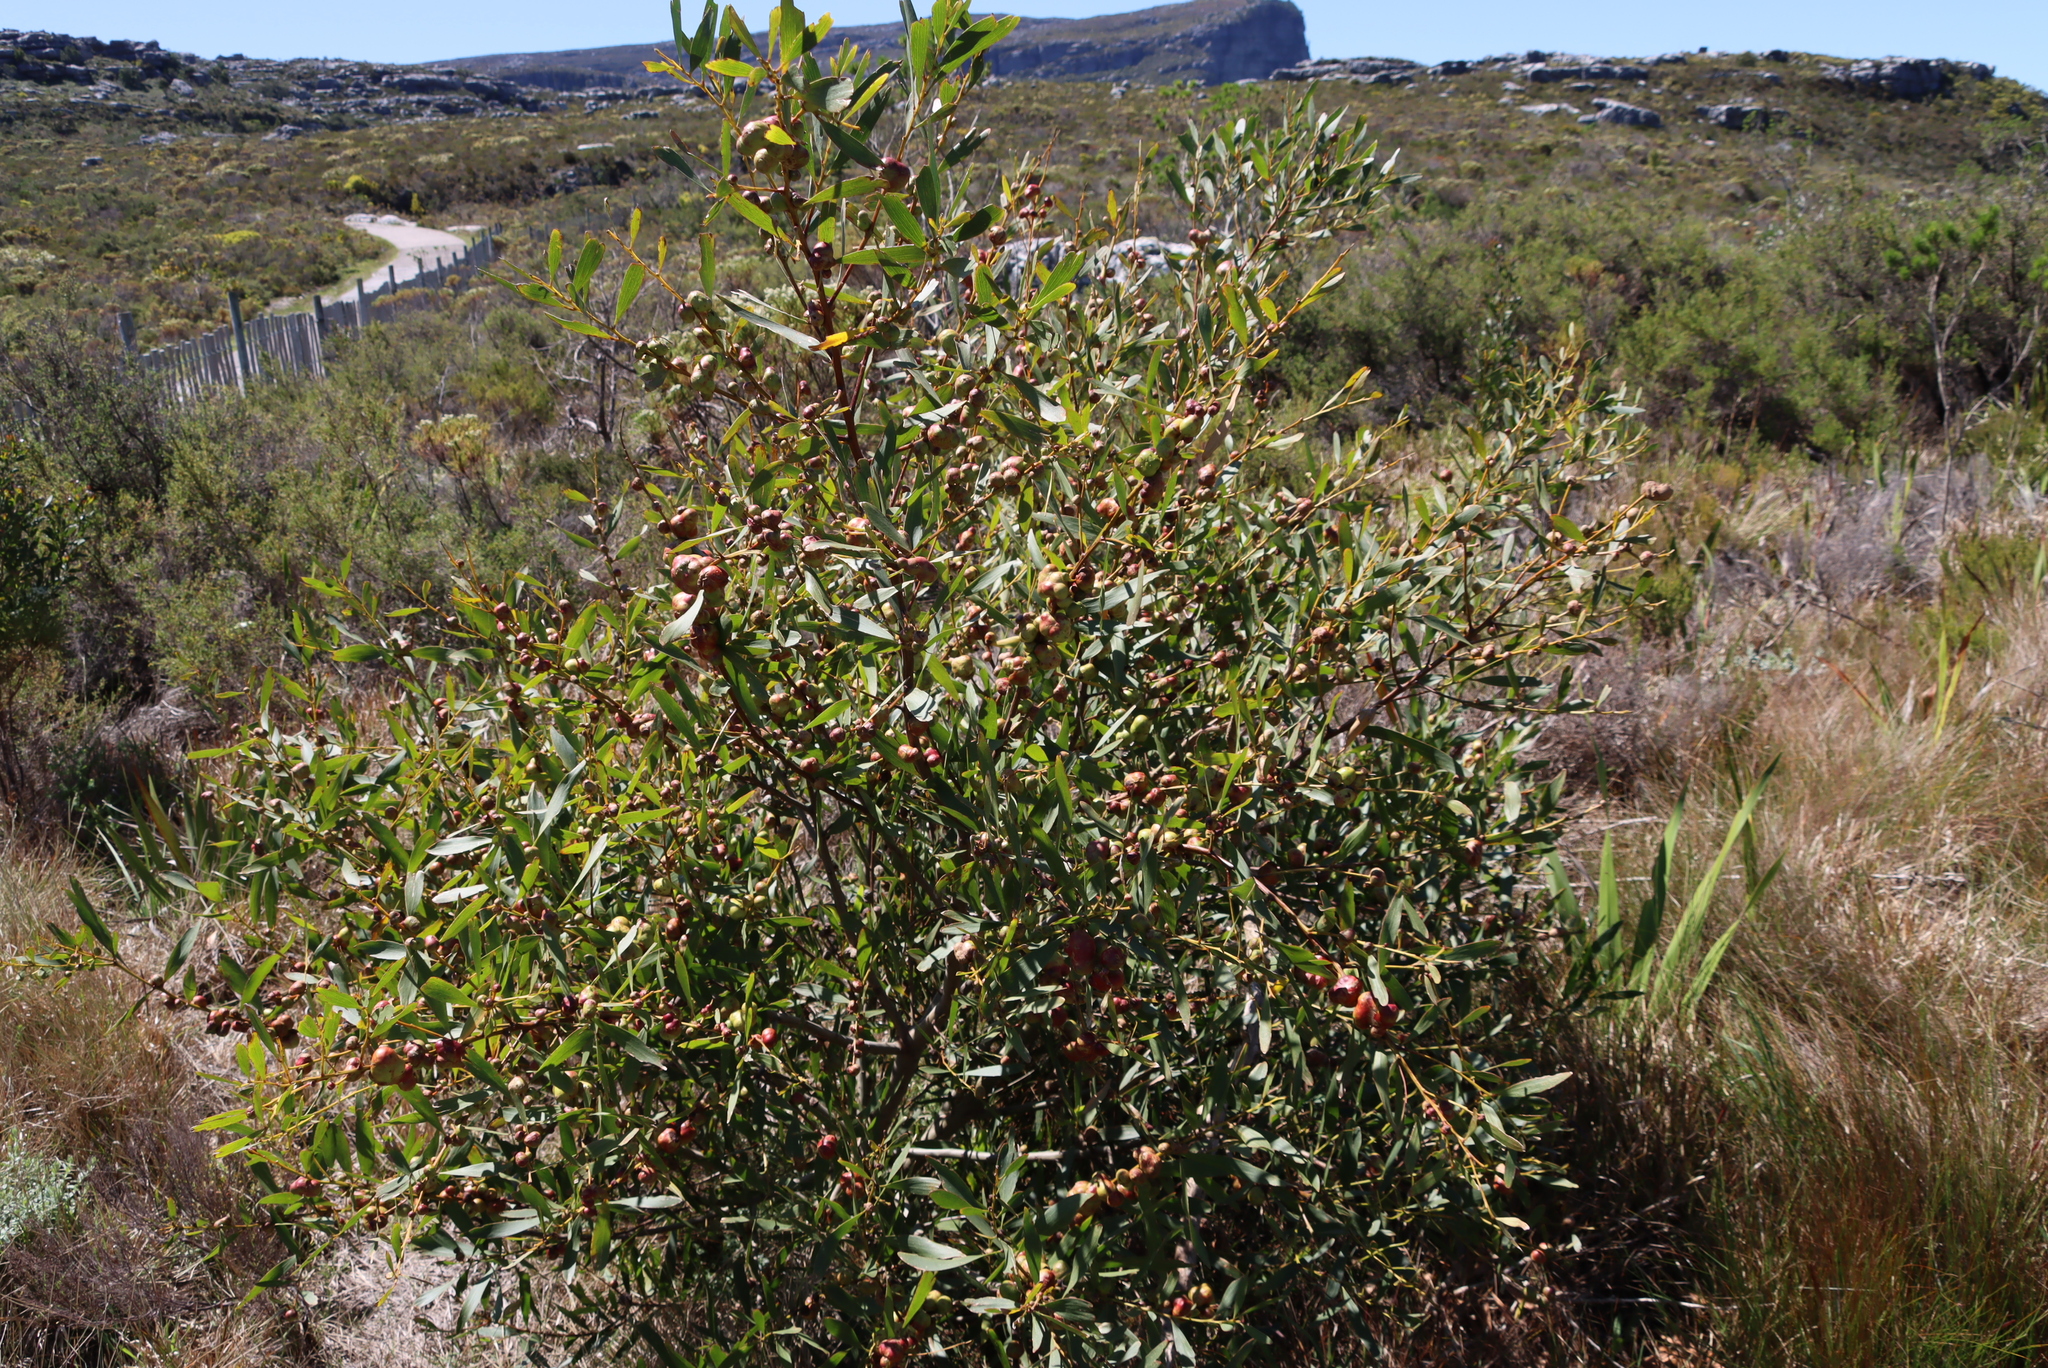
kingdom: Plantae
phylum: Tracheophyta
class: Magnoliopsida
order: Fabales
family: Fabaceae
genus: Acacia
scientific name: Acacia longifolia
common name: Sydney golden wattle
